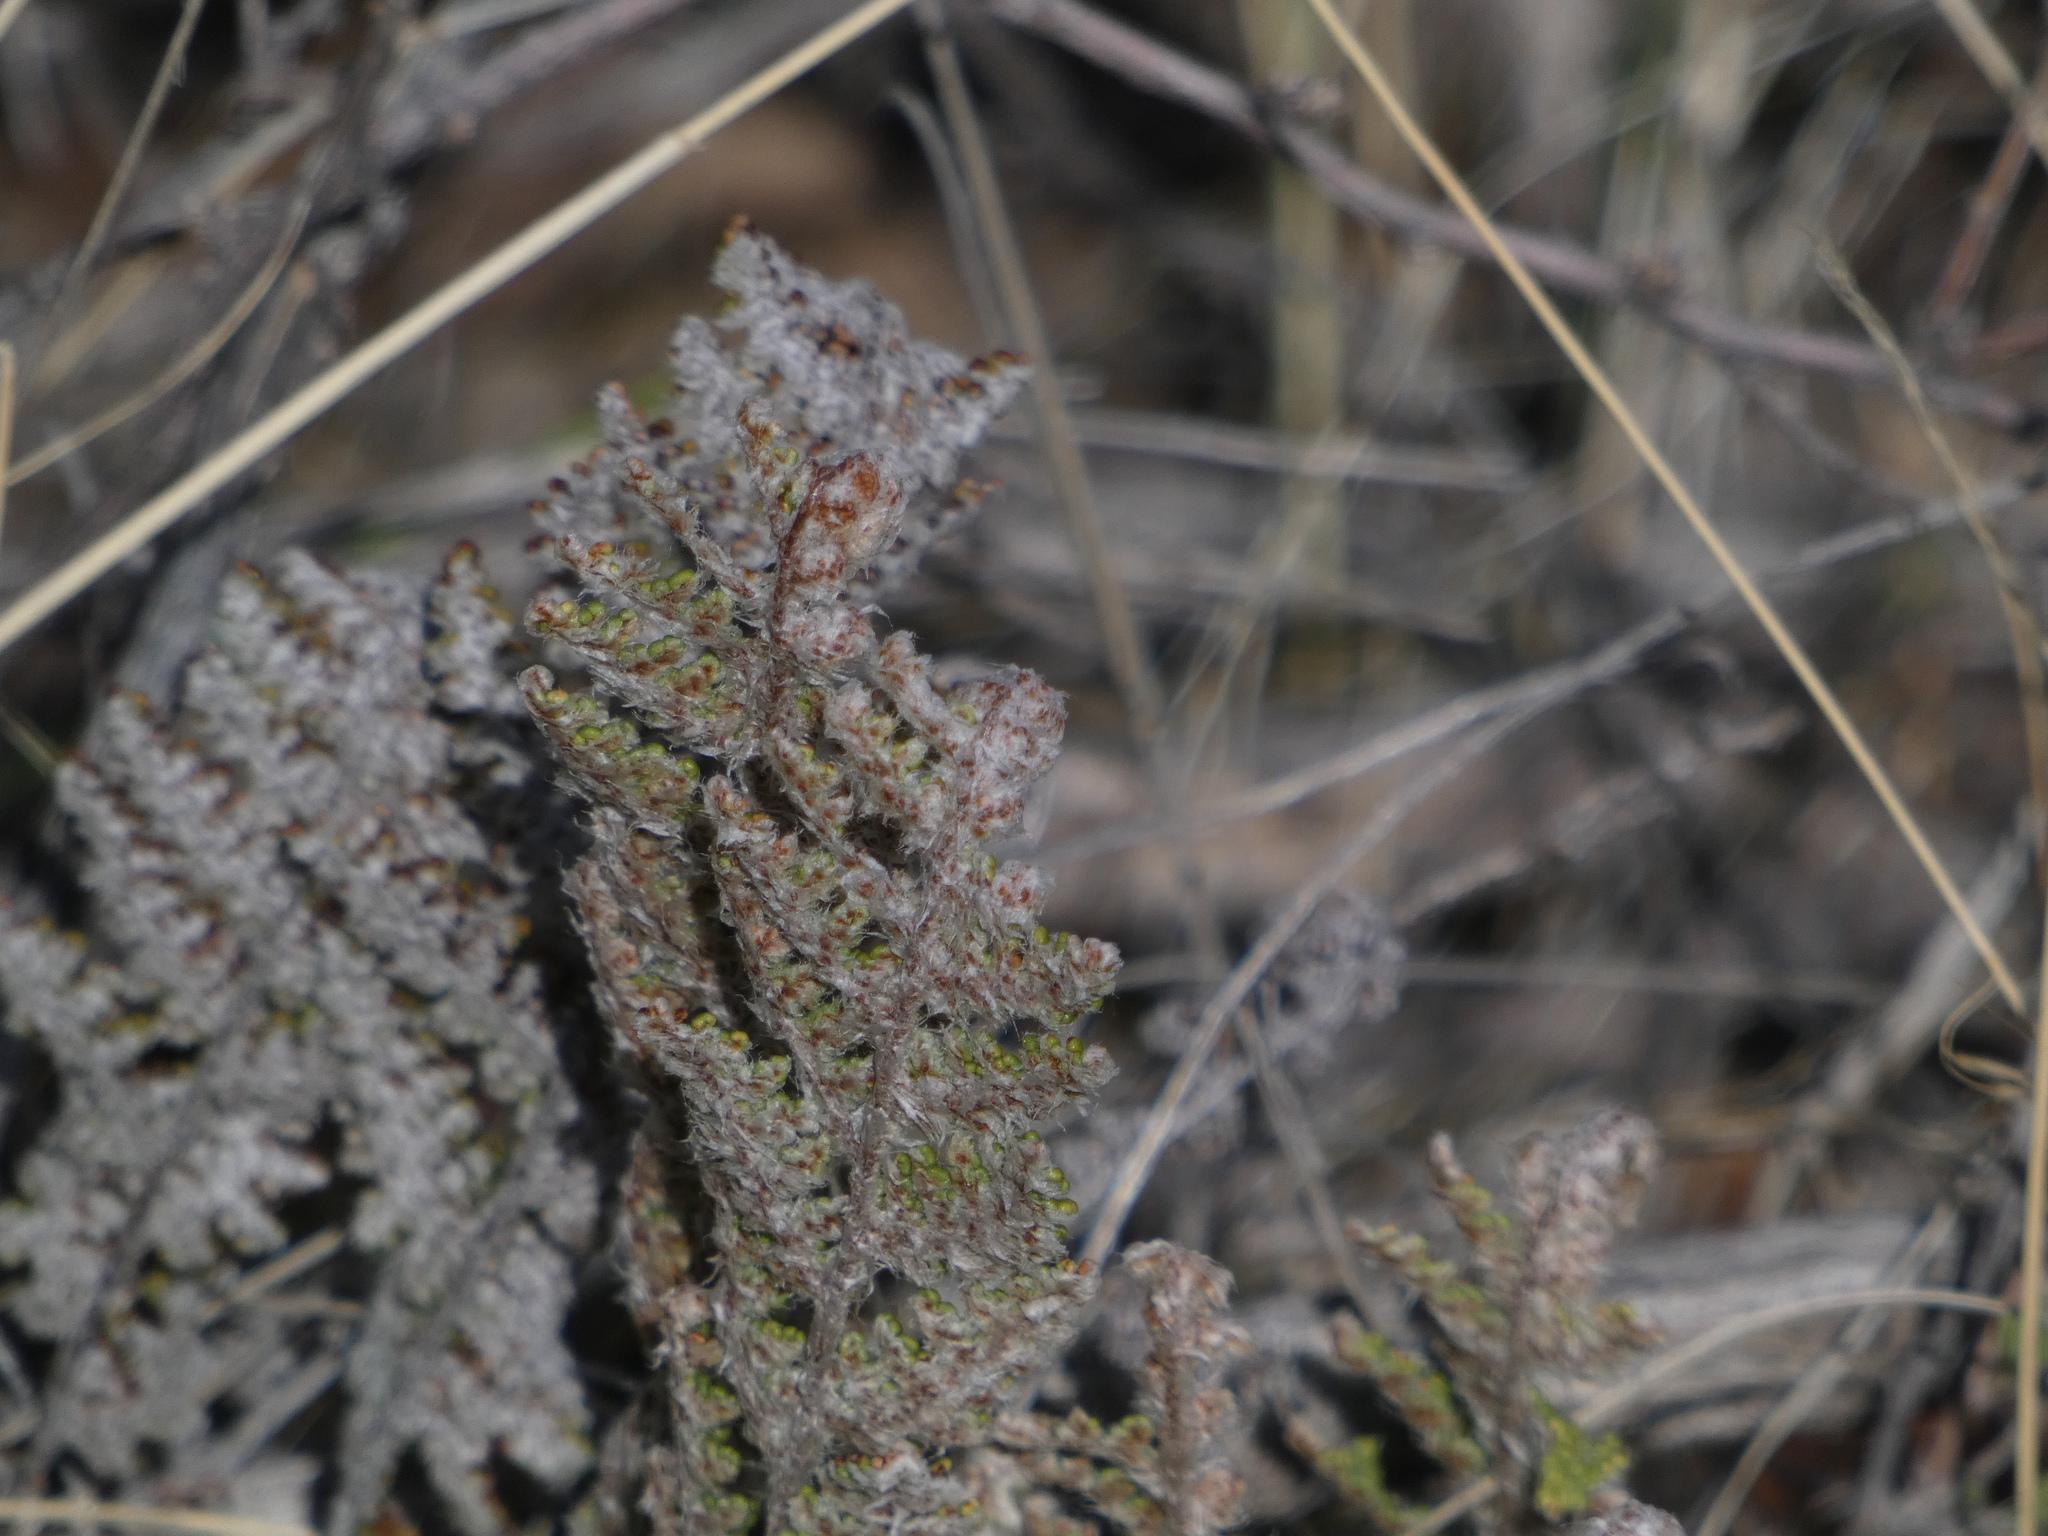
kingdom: Plantae
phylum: Tracheophyta
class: Polypodiopsida
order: Polypodiales
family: Pteridaceae
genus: Myriopteris
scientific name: Myriopteris covillei
